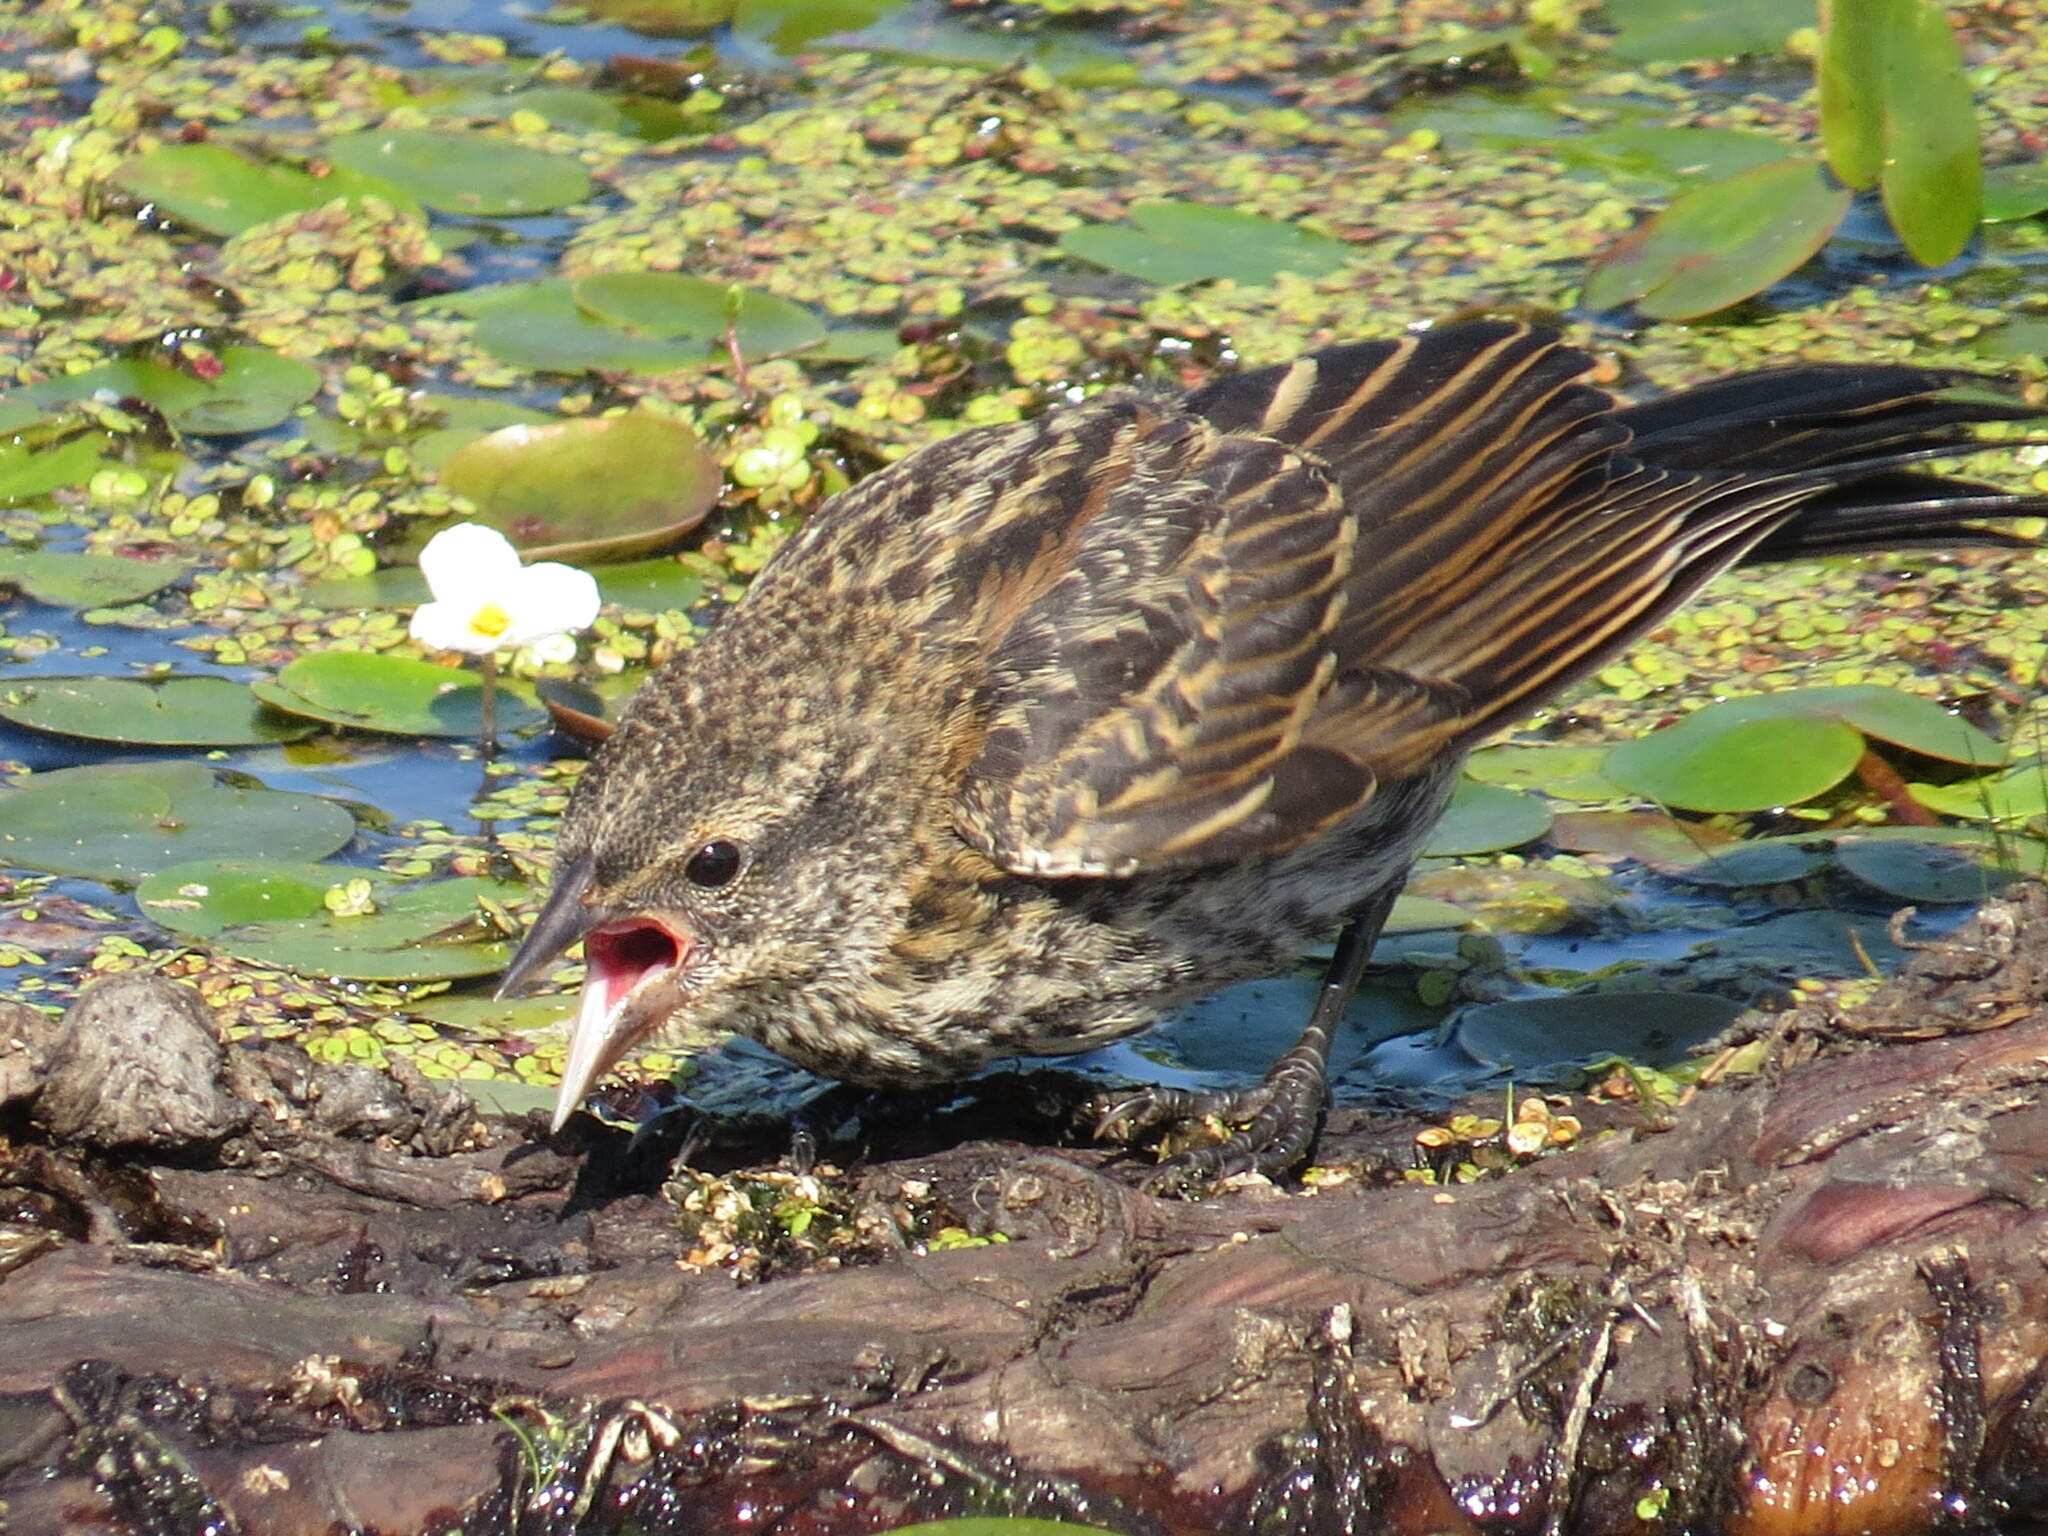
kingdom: Animalia
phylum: Chordata
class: Aves
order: Passeriformes
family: Icteridae
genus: Agelaius
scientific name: Agelaius phoeniceus
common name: Red-winged blackbird
